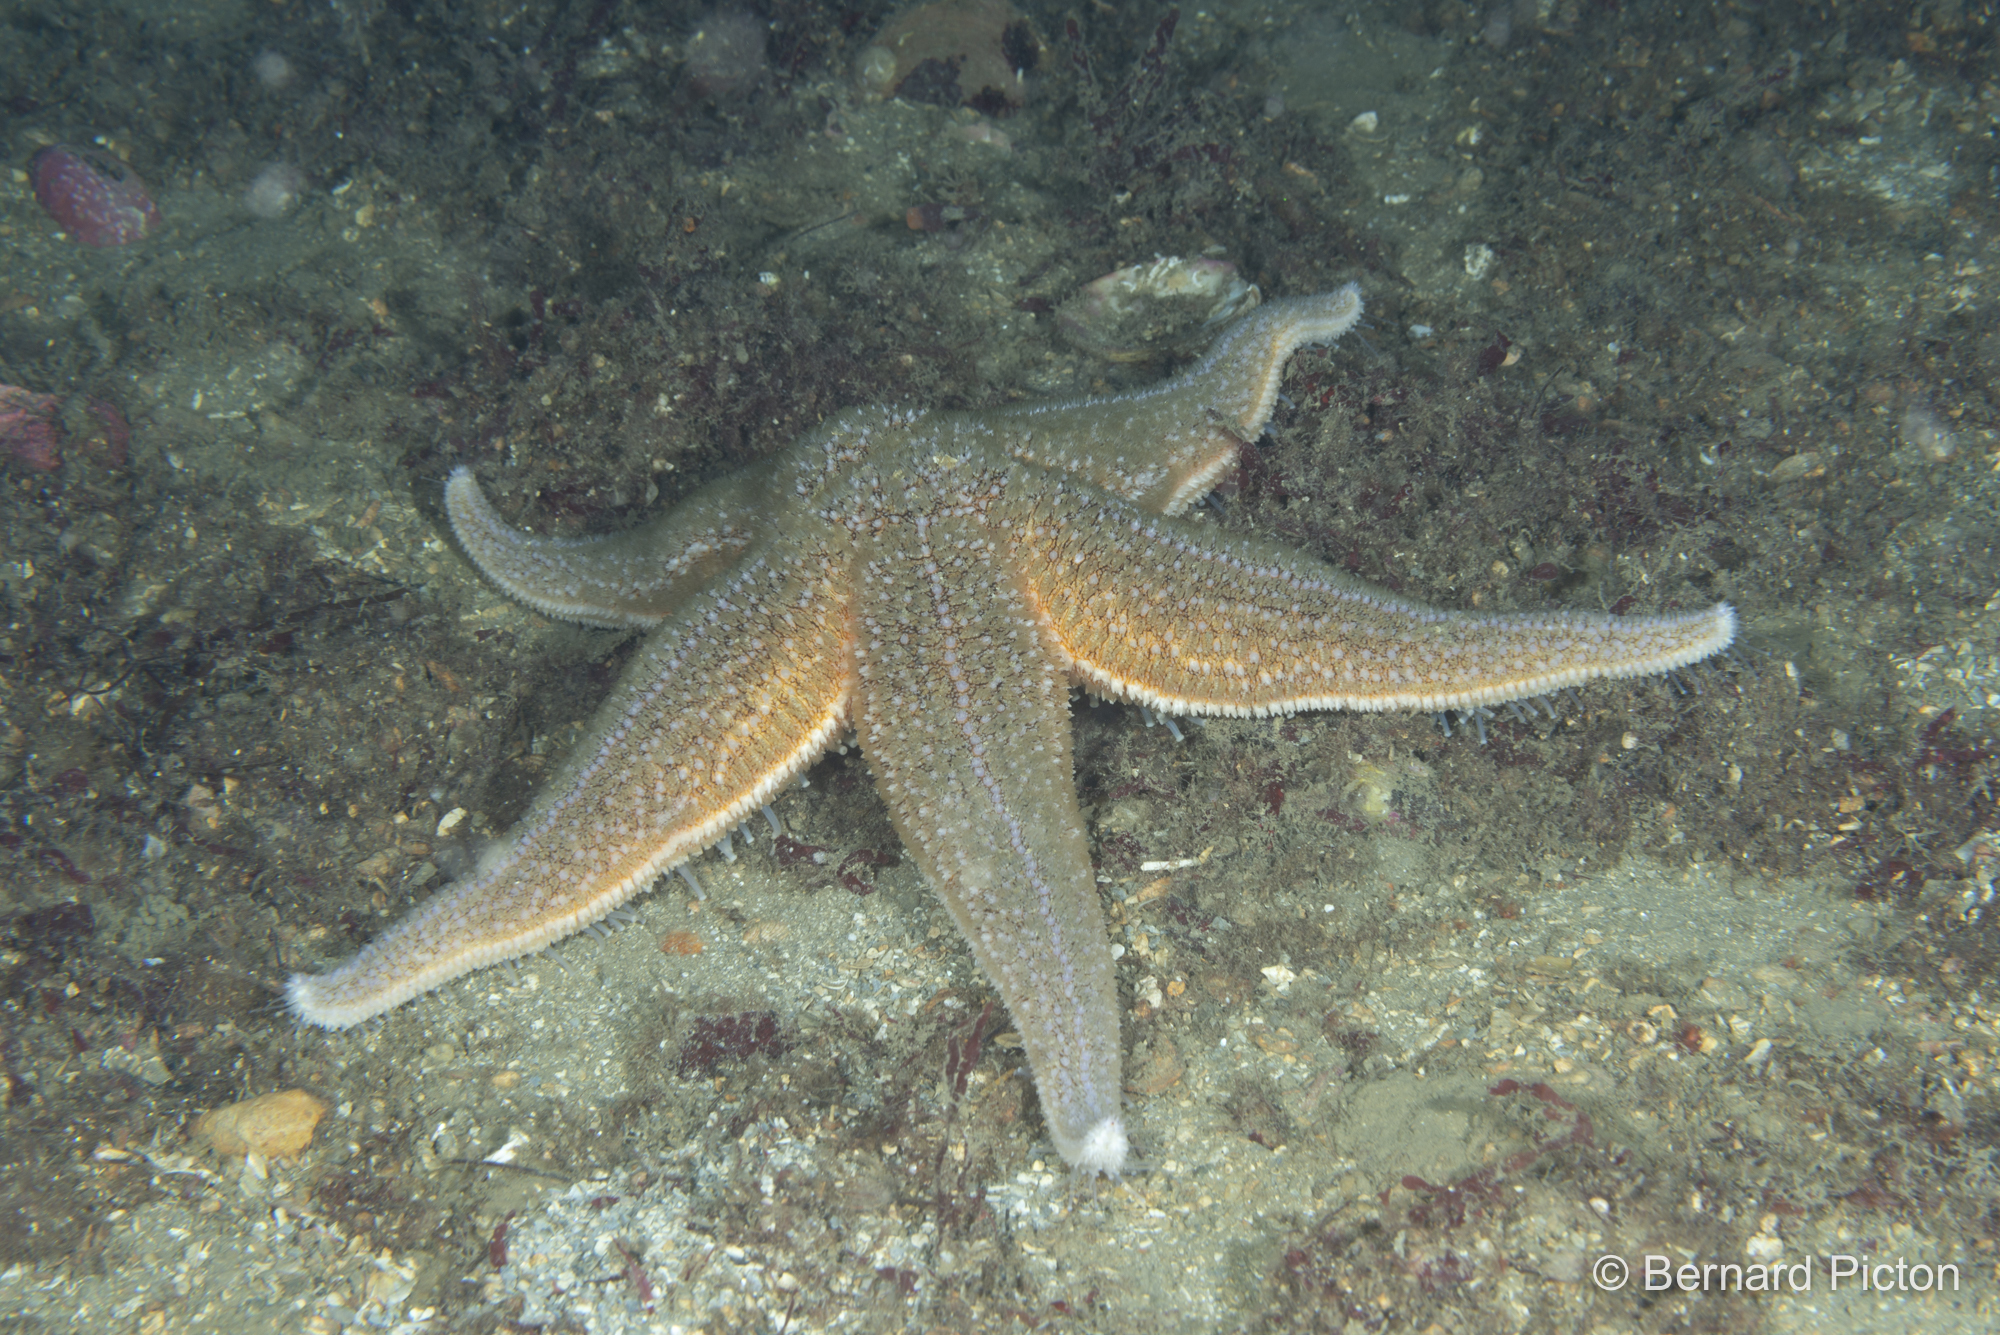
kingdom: Animalia
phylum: Echinodermata
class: Asteroidea
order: Forcipulatida
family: Asteriidae
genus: Asterias
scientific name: Asterias rubens
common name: Common starfish
